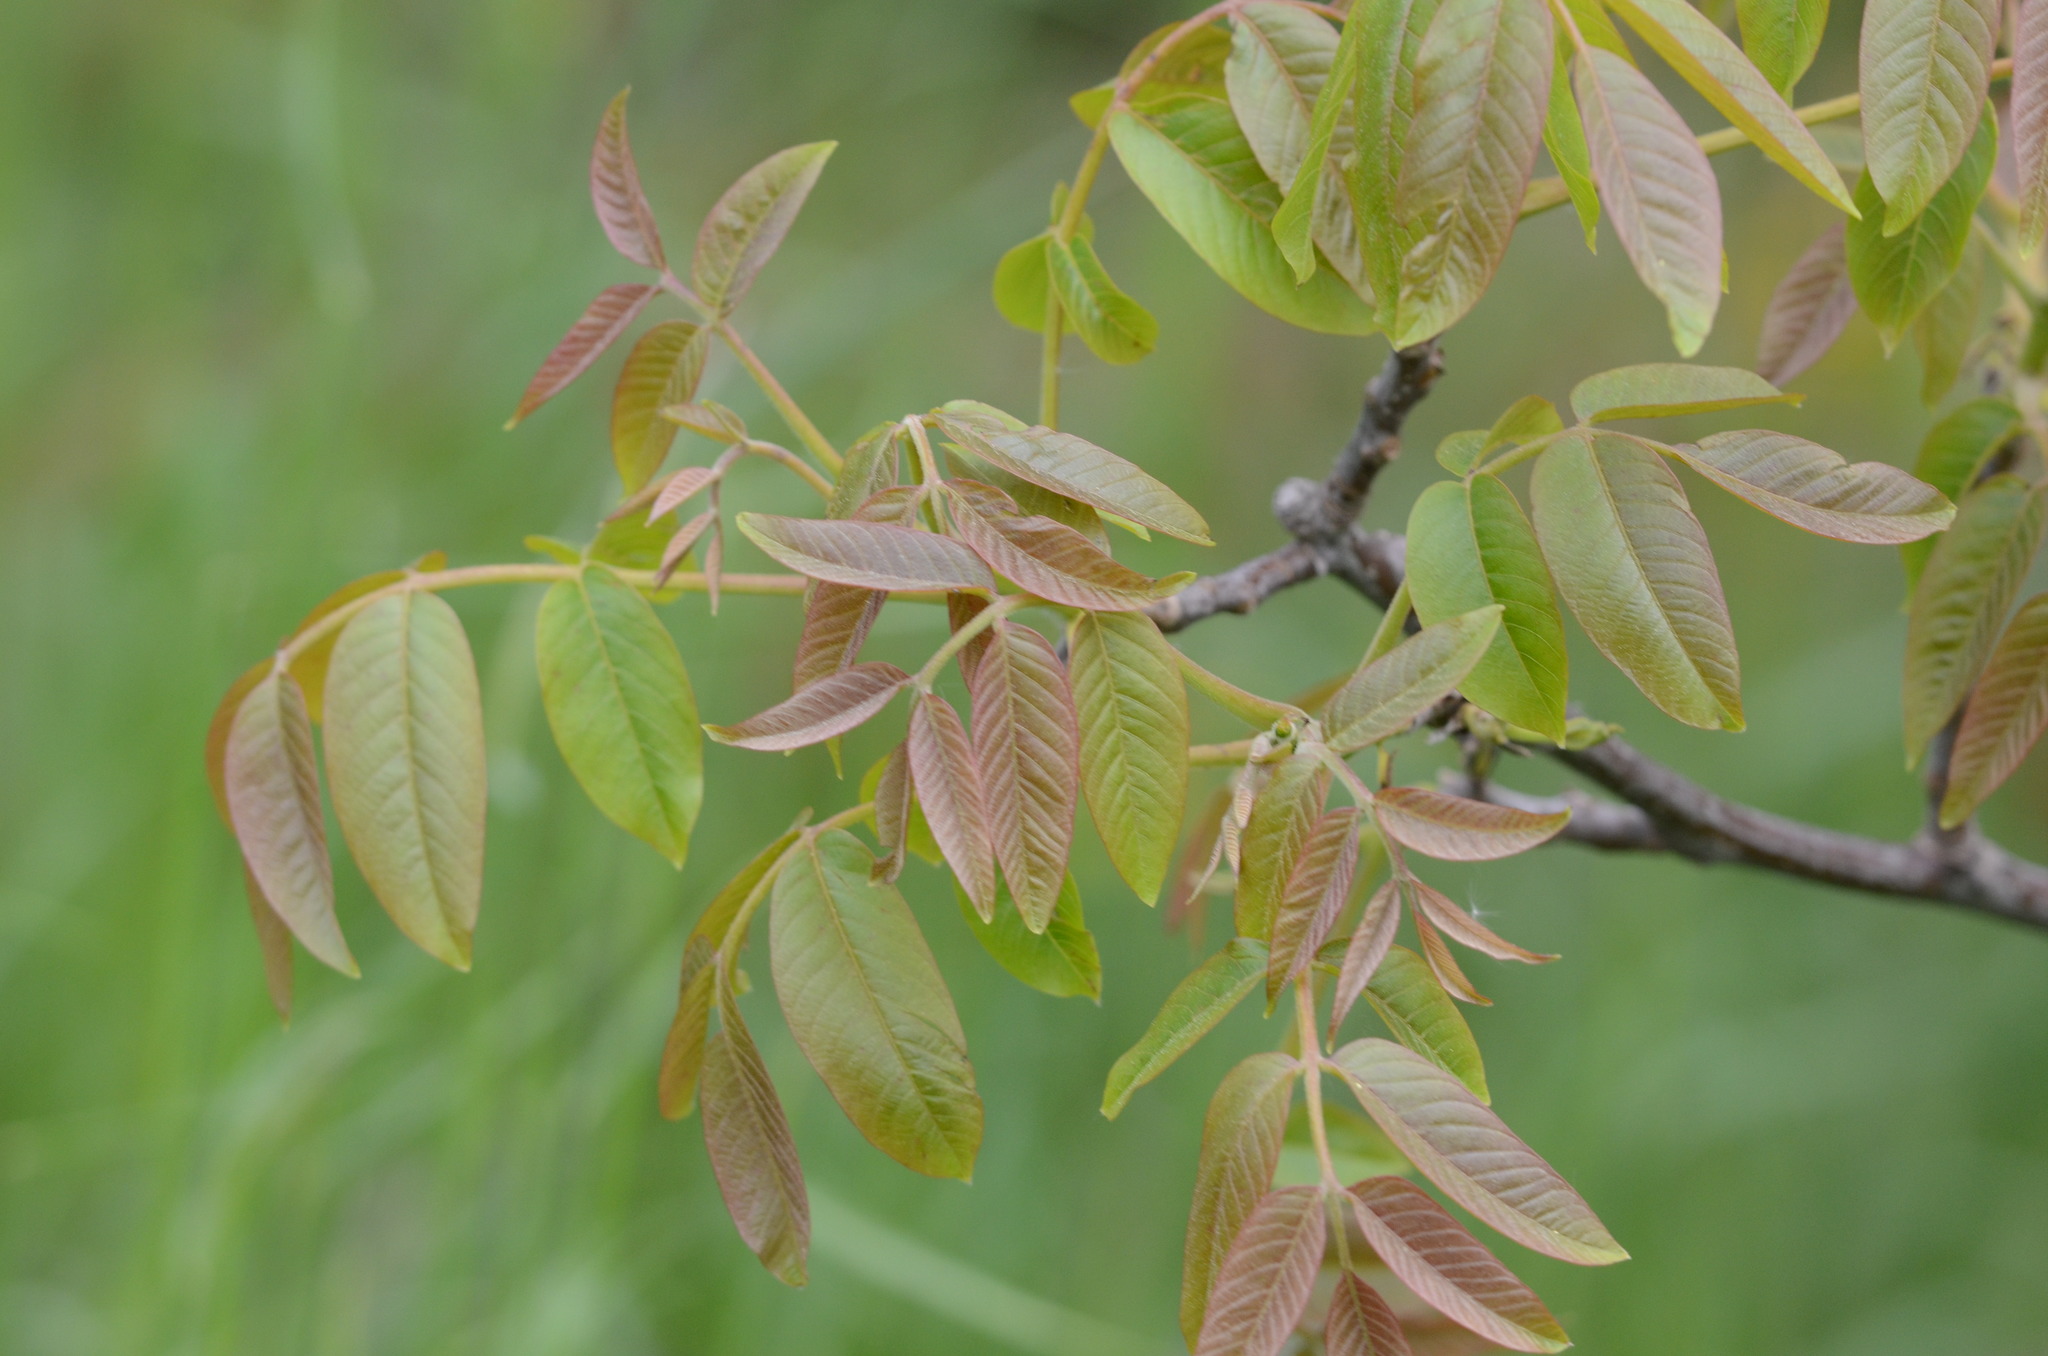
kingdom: Plantae
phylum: Tracheophyta
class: Magnoliopsida
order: Fagales
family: Juglandaceae
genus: Juglans
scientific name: Juglans regia
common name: Walnut
